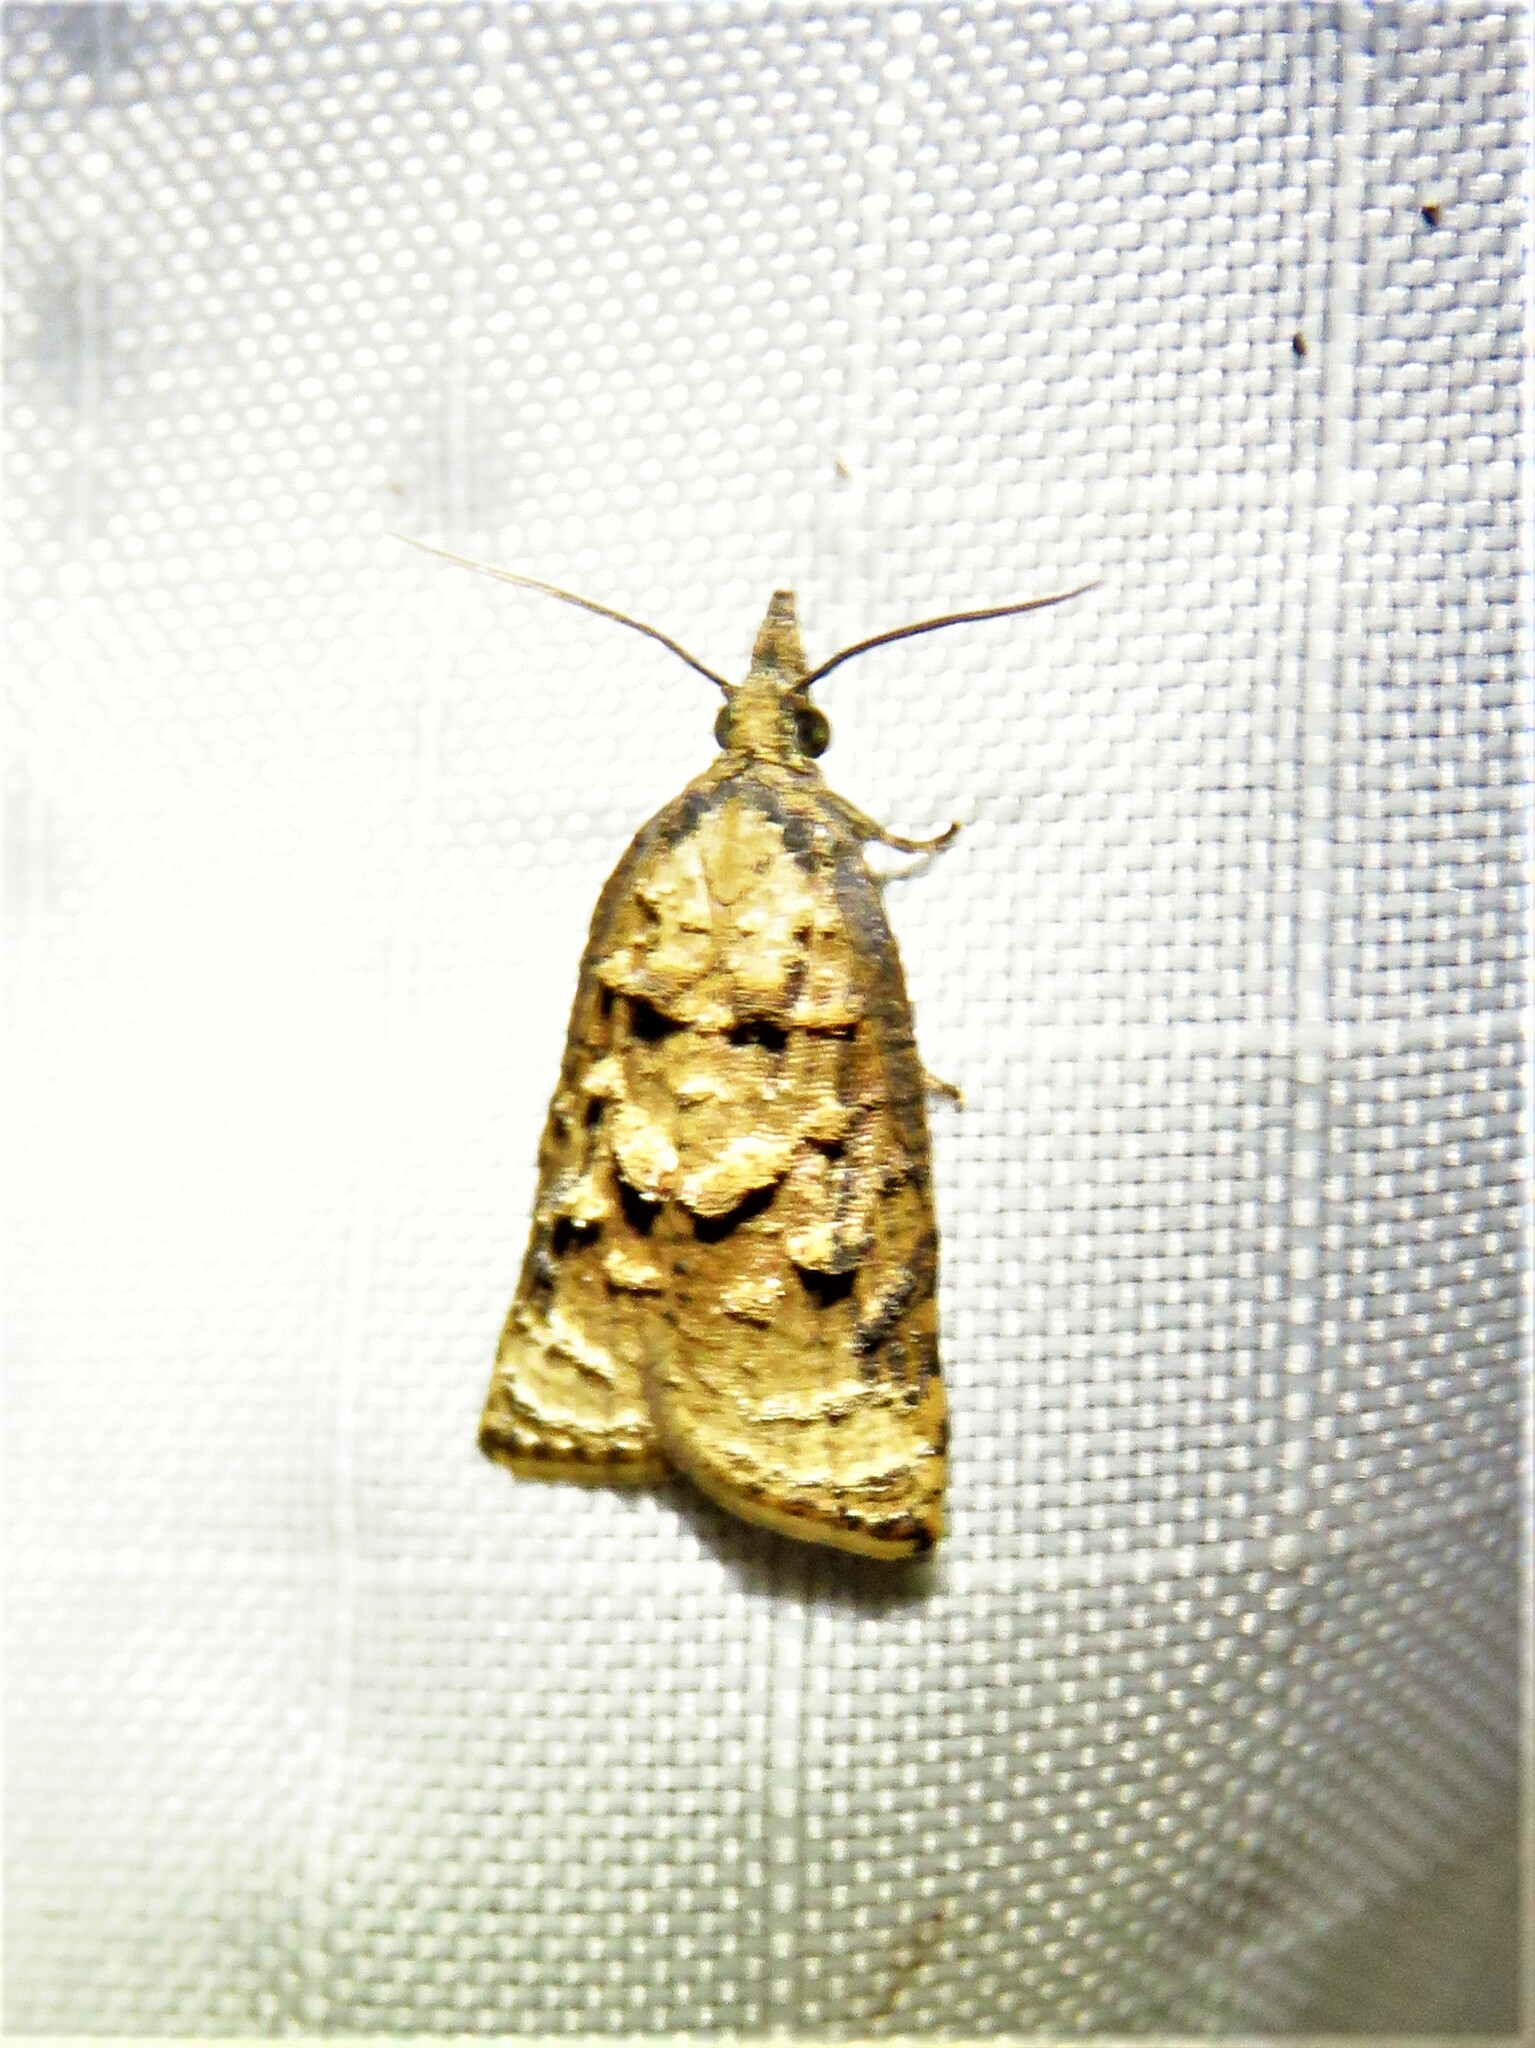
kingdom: Animalia
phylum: Arthropoda
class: Insecta
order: Lepidoptera
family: Tortricidae
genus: Platynota
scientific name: Platynota rostrana
